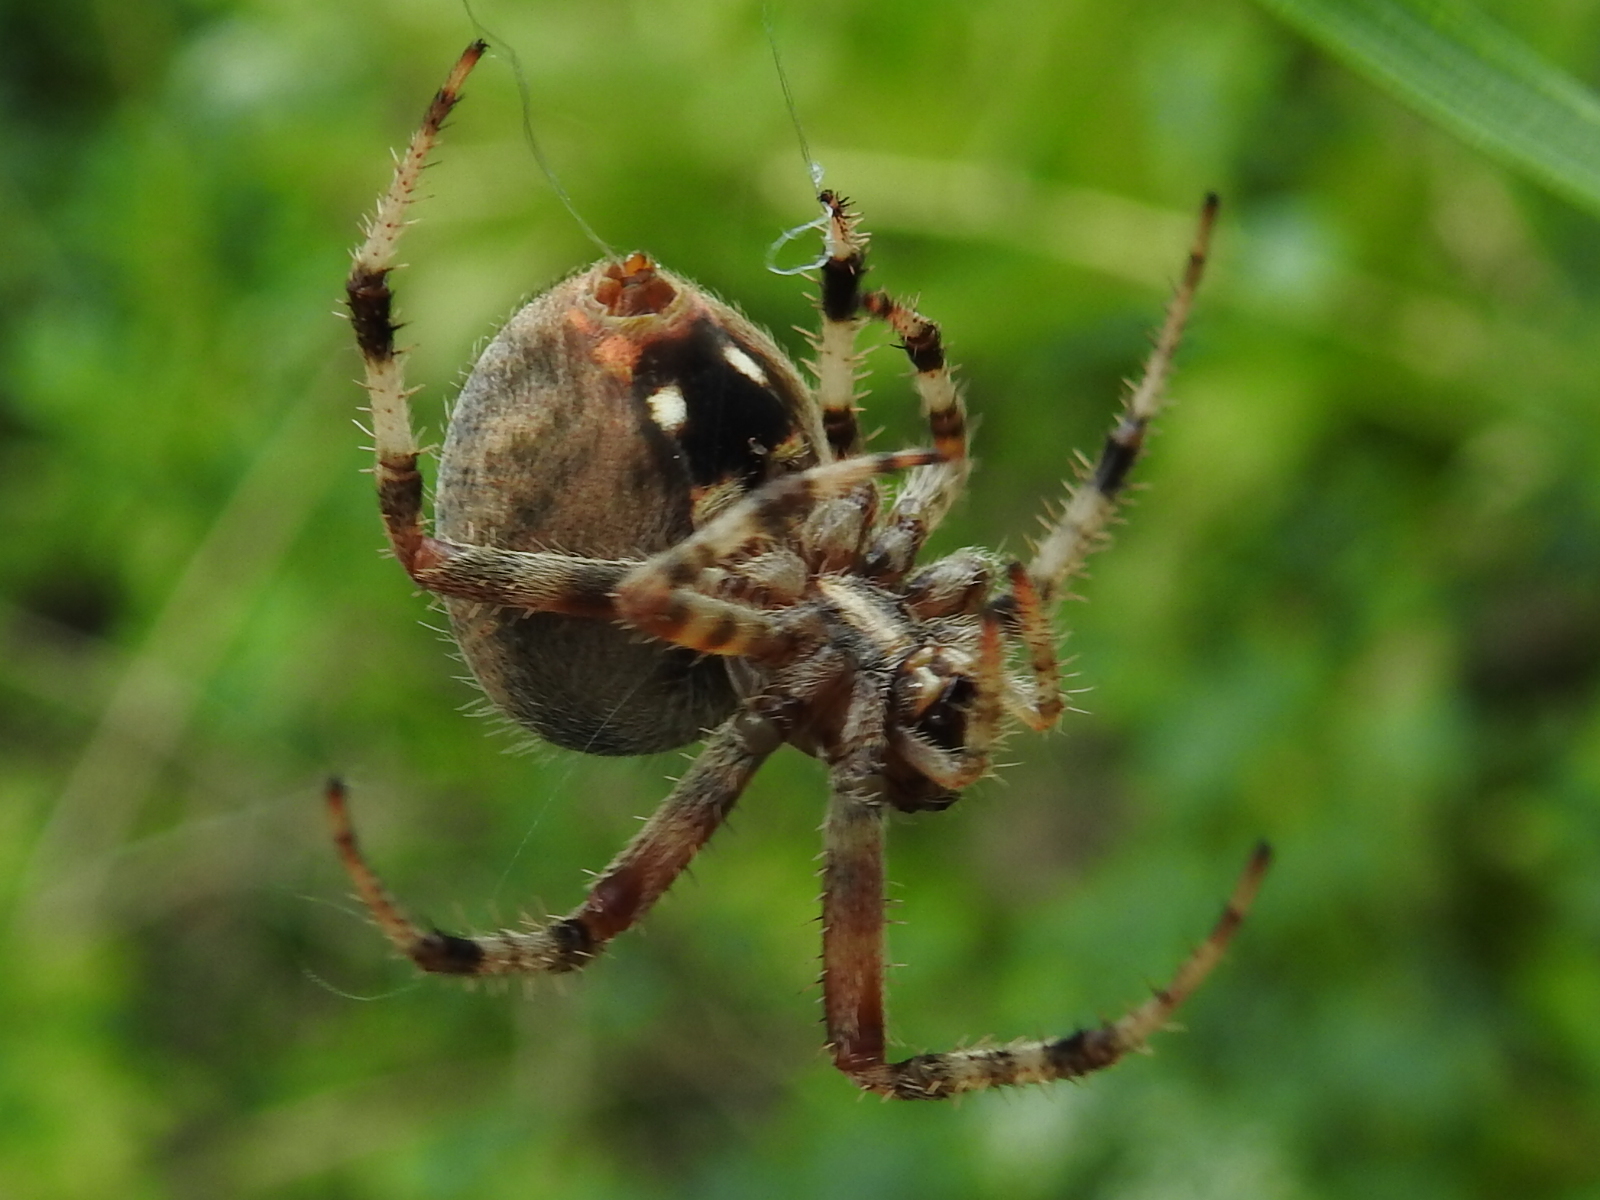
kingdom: Animalia
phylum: Arthropoda
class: Arachnida
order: Araneae
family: Araneidae
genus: Neoscona
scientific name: Neoscona crucifera
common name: Spotted orbweaver
